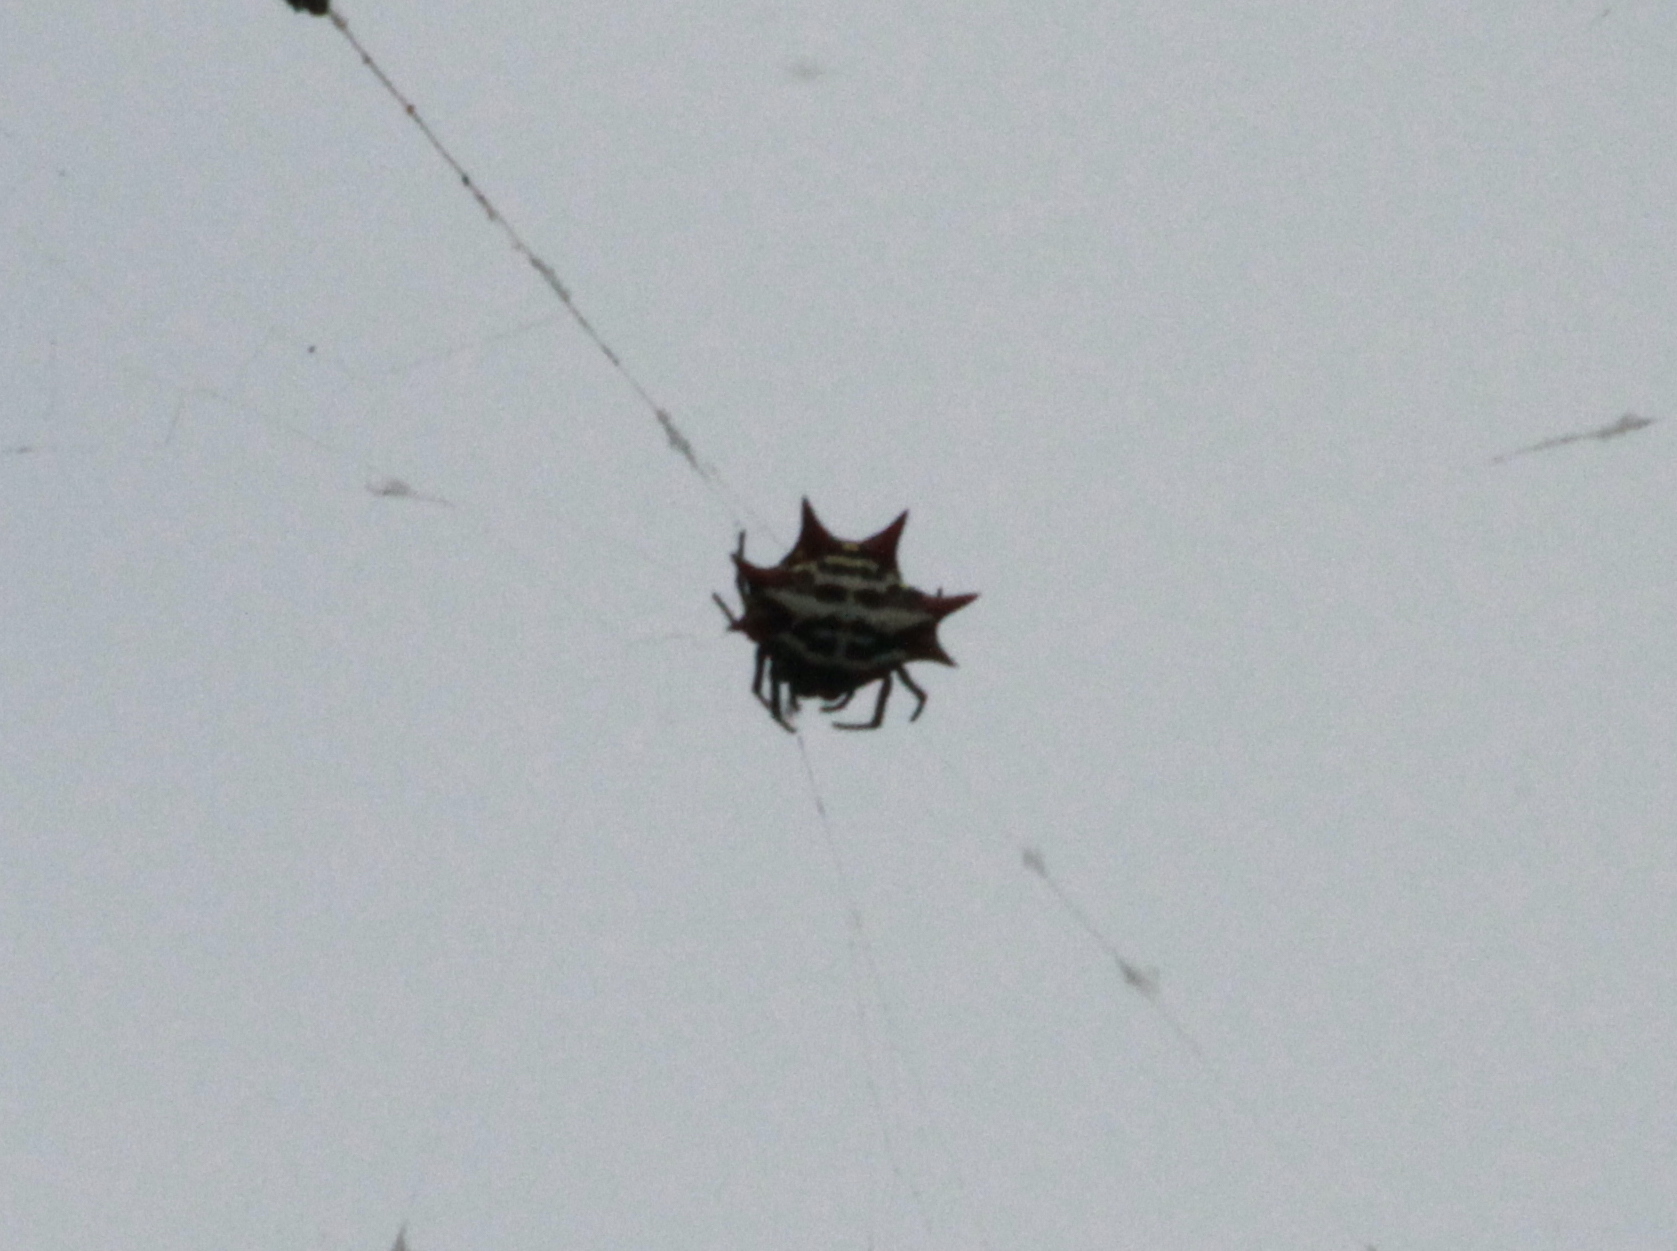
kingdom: Animalia
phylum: Arthropoda
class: Arachnida
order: Araneae
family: Araneidae
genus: Gasteracantha
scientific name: Gasteracantha cancriformis
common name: Orb weavers
